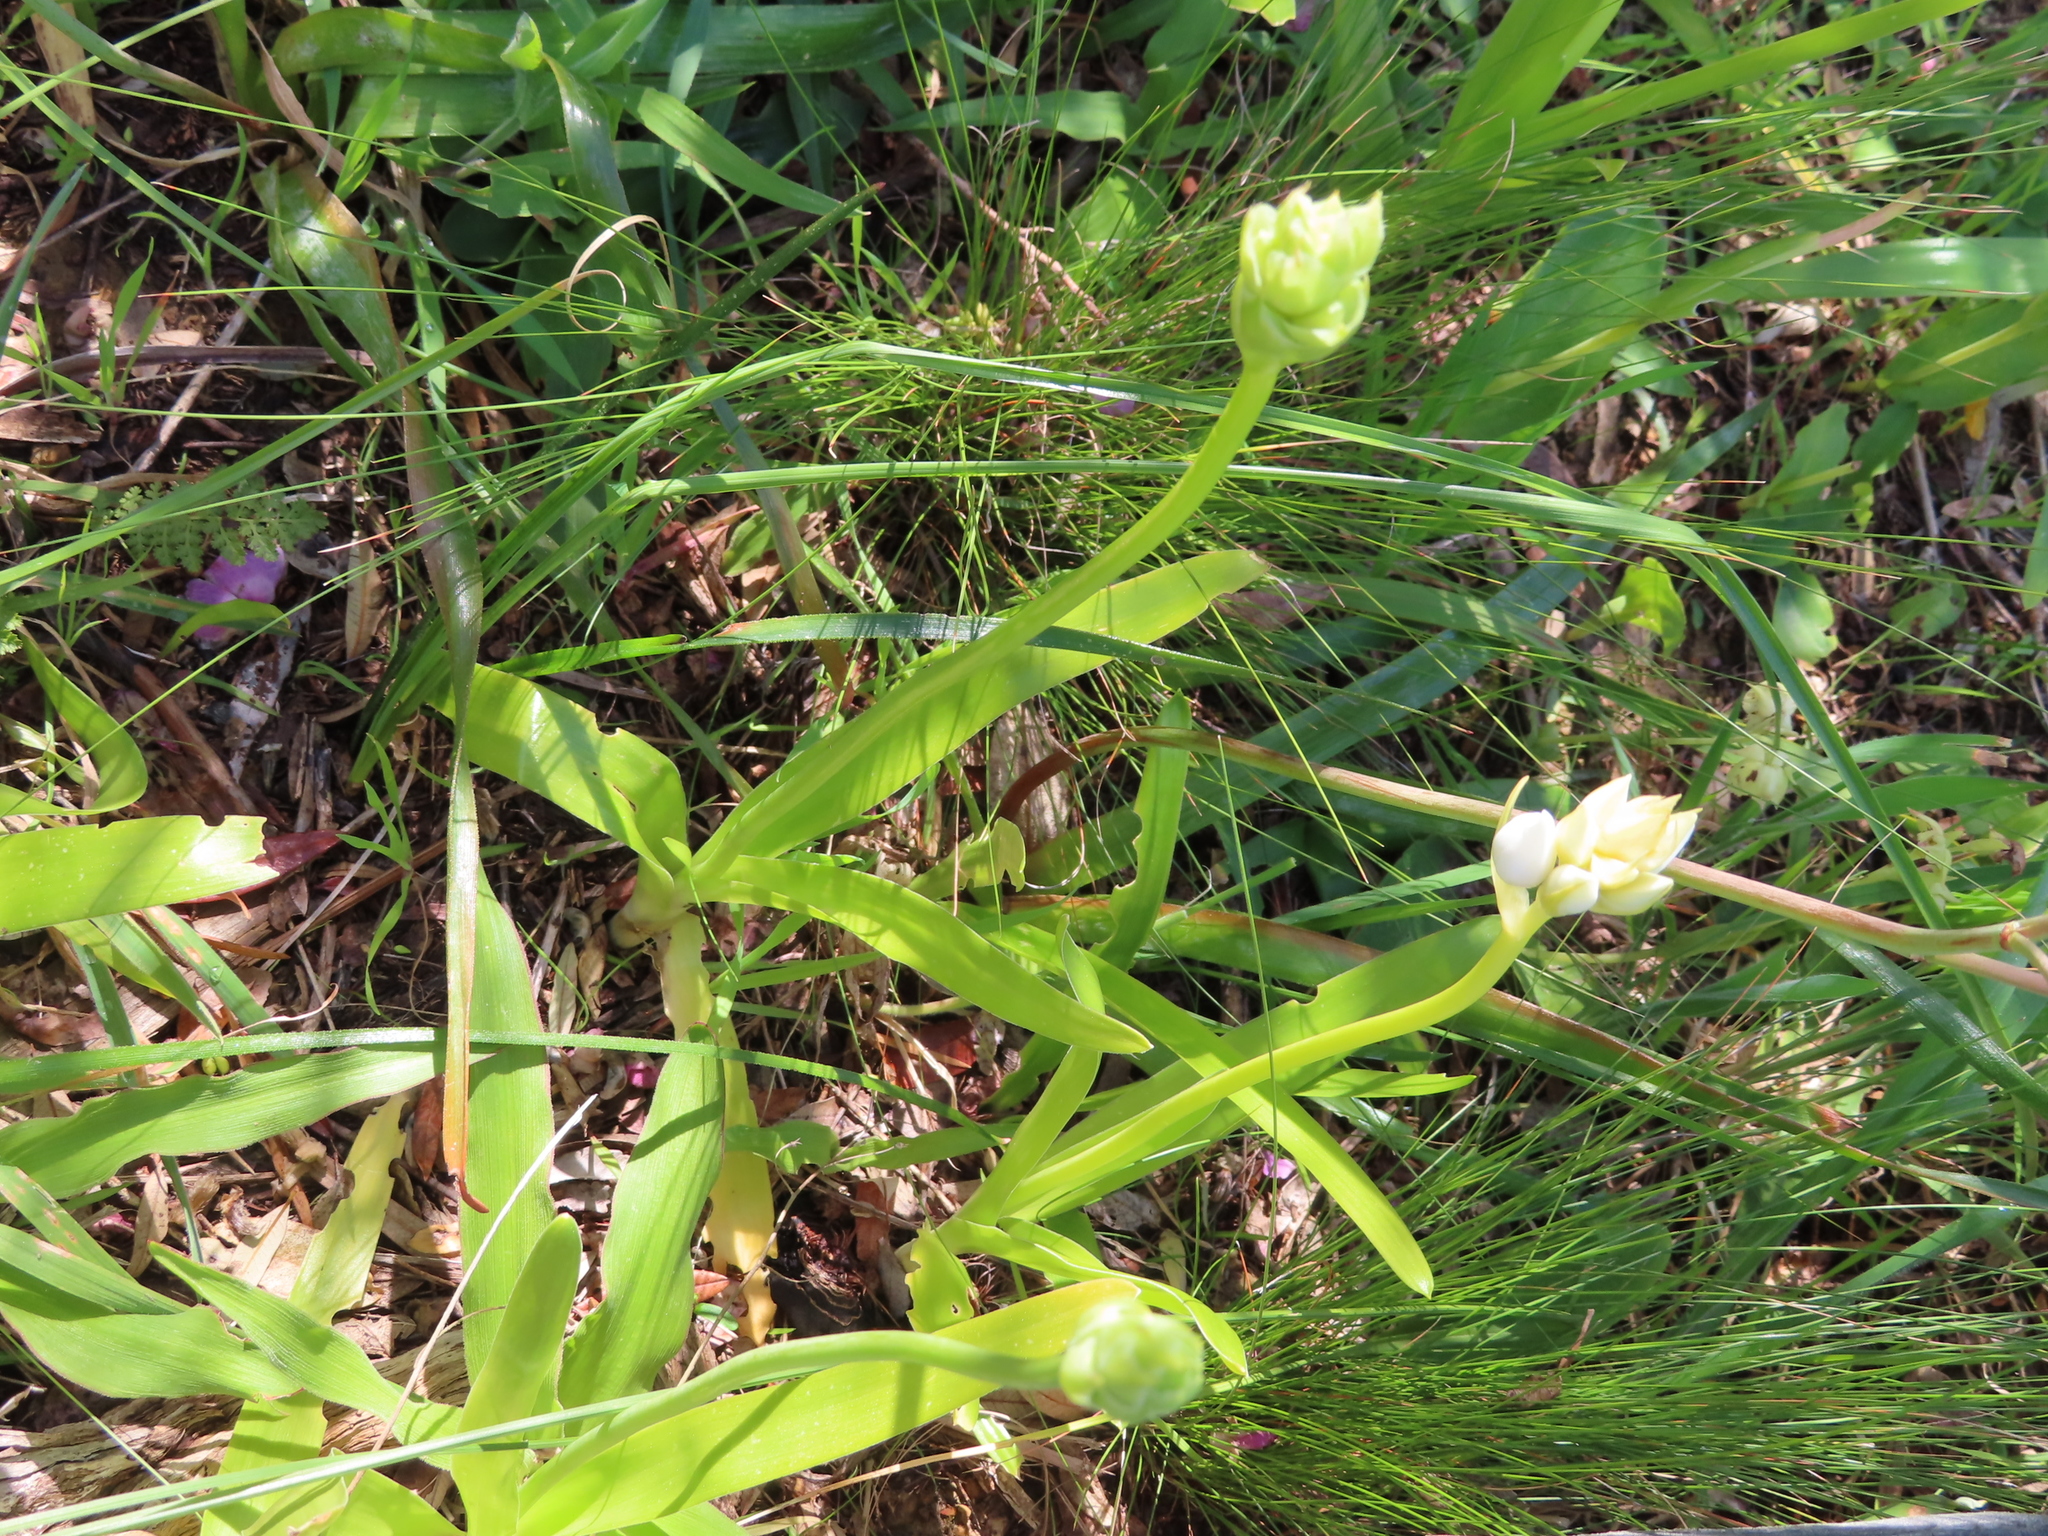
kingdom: Plantae
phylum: Tracheophyta
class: Liliopsida
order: Asparagales
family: Asparagaceae
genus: Ornithogalum
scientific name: Ornithogalum thyrsoides
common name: Chincherinchee
